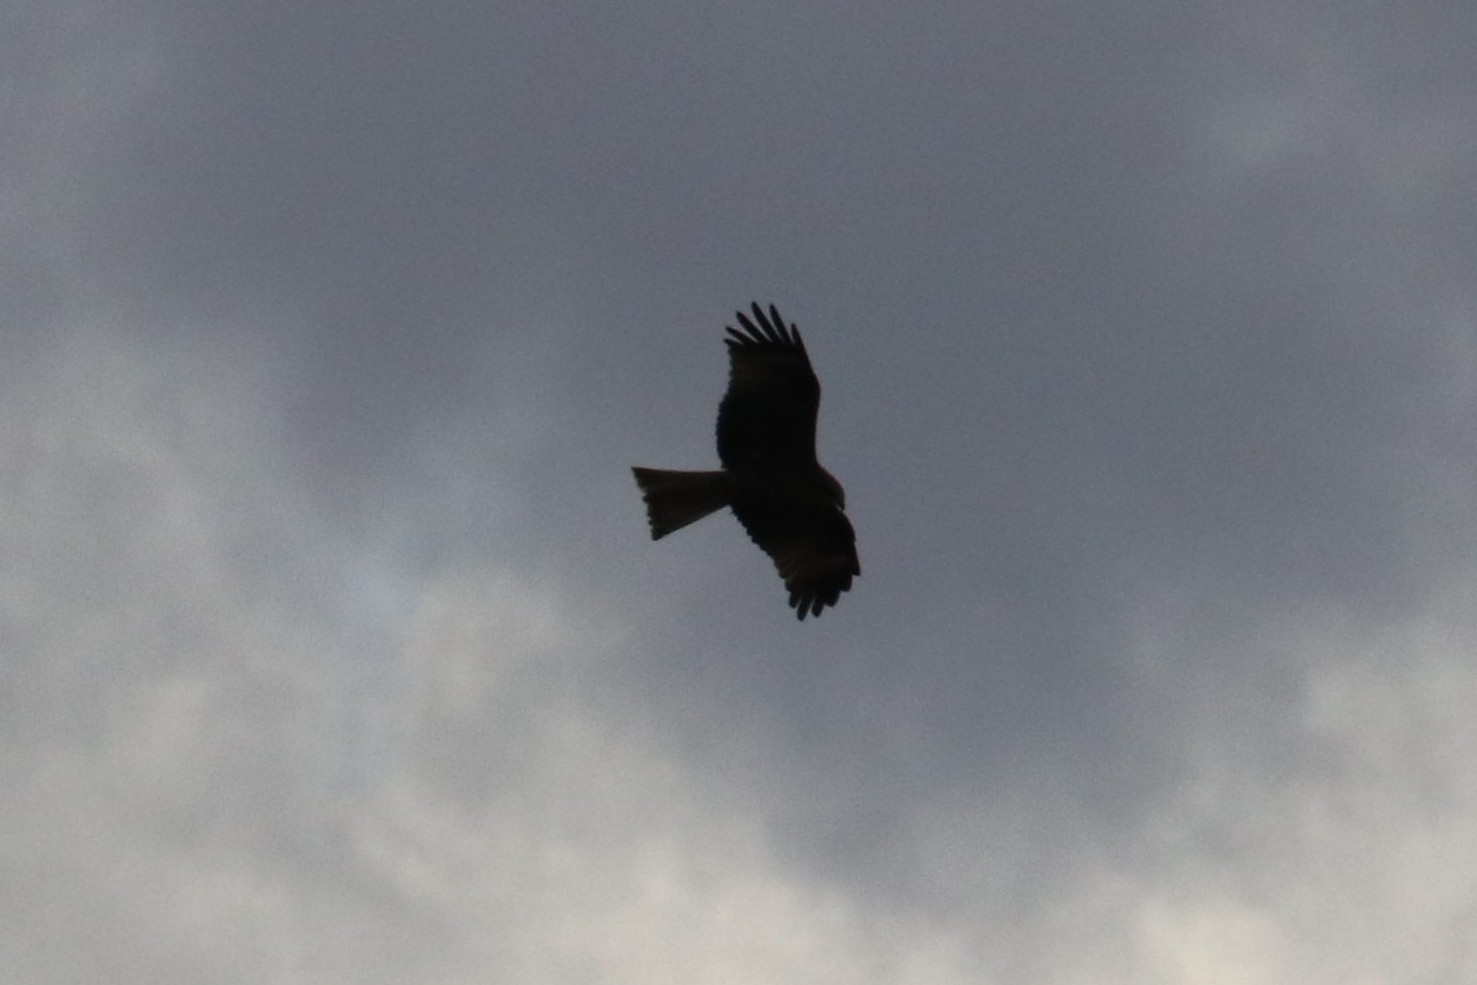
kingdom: Animalia
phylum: Chordata
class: Aves
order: Accipitriformes
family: Accipitridae
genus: Milvus
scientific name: Milvus migrans
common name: Black kite
